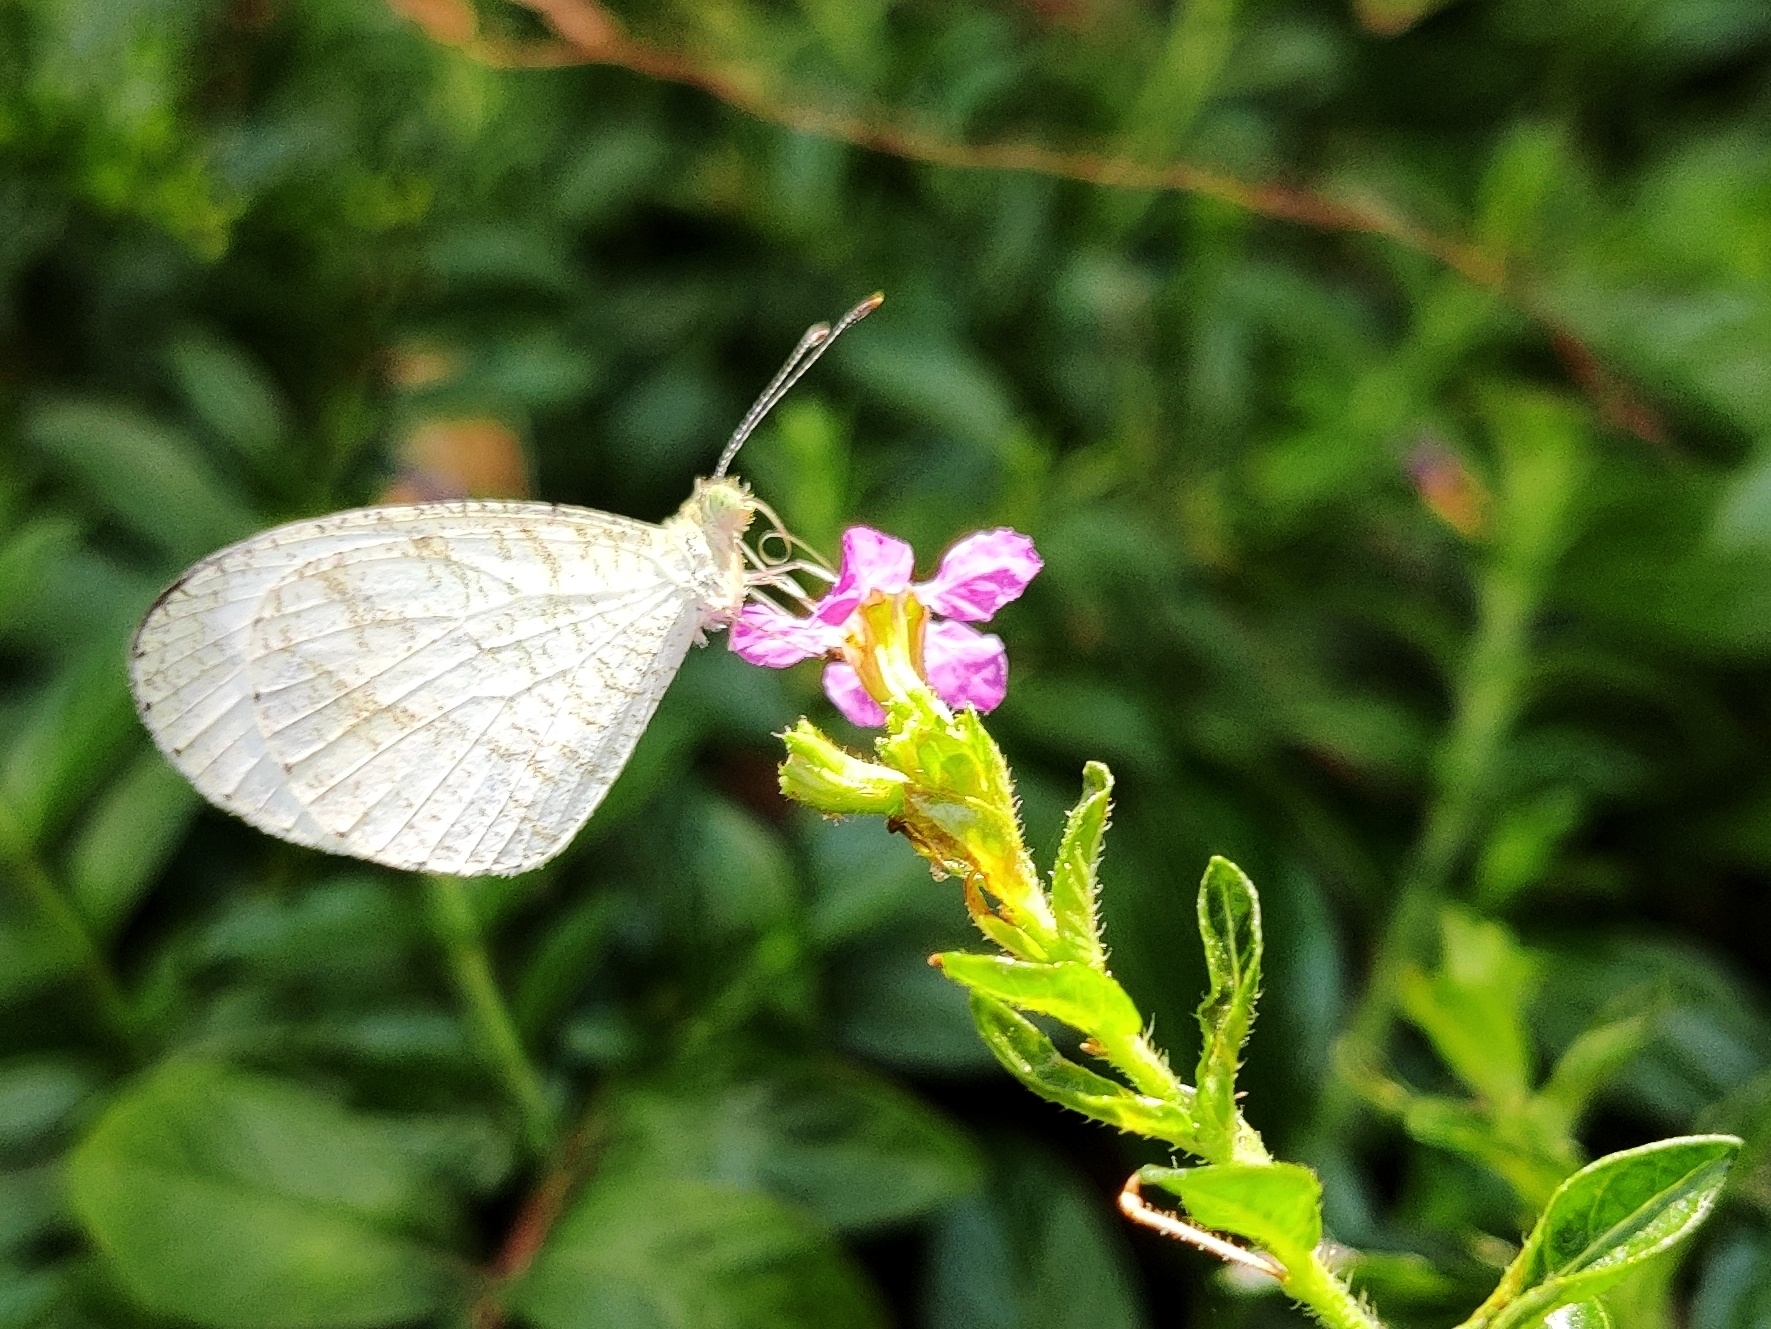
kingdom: Animalia
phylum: Arthropoda
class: Insecta
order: Lepidoptera
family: Pieridae
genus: Leptosia
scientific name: Leptosia nina
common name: Psyche
